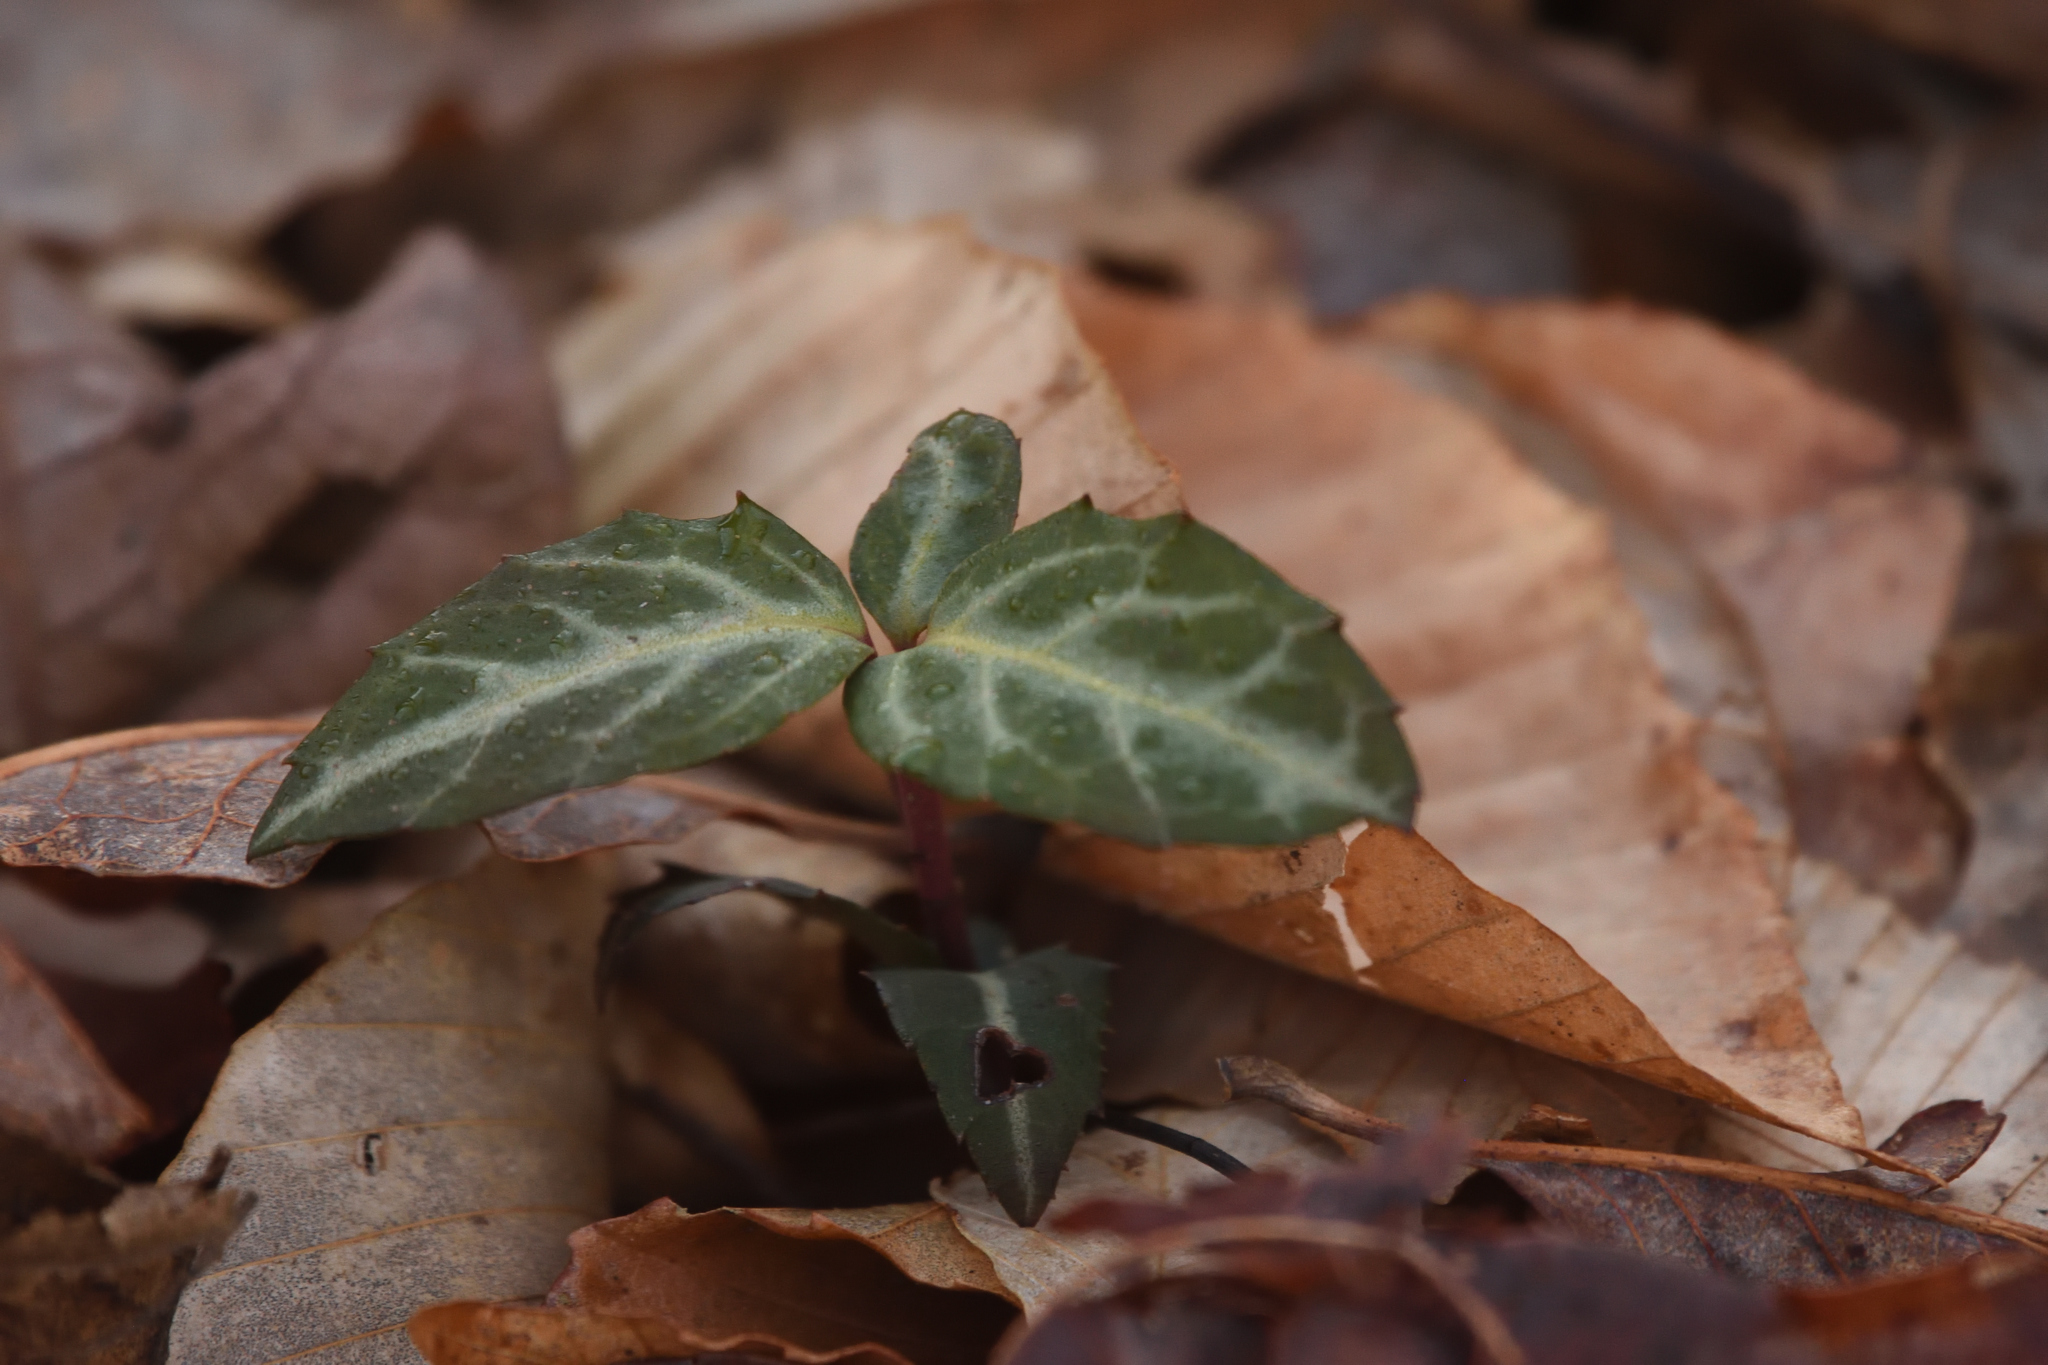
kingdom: Plantae
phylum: Tracheophyta
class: Magnoliopsida
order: Ericales
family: Ericaceae
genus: Chimaphila
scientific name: Chimaphila maculata
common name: Spotted pipsissewa
